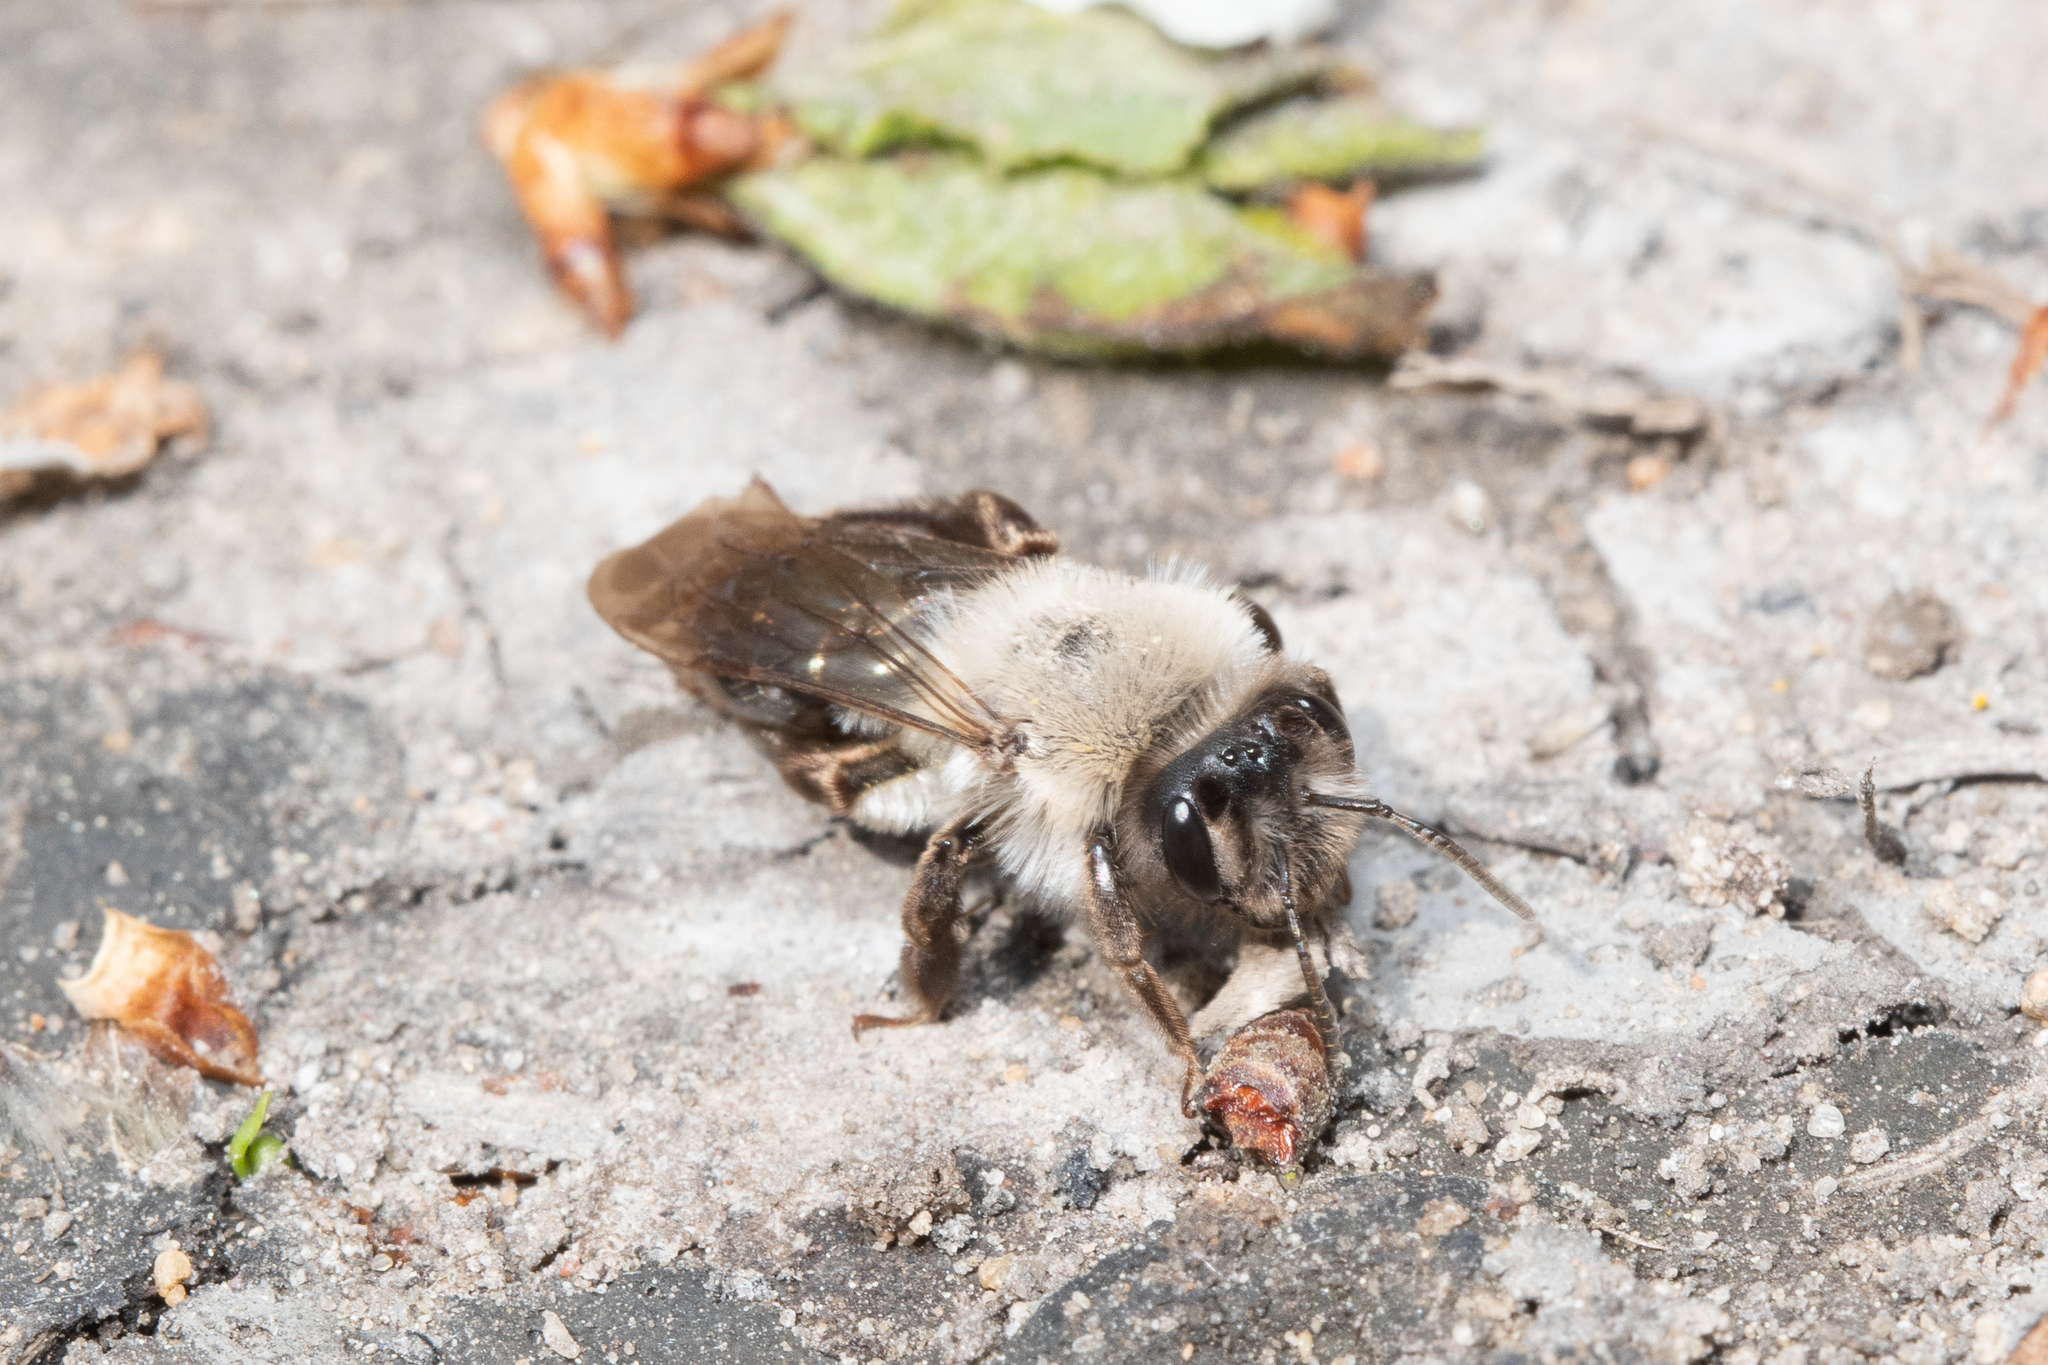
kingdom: Animalia
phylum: Arthropoda
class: Insecta
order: Hymenoptera
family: Andrenidae
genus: Andrena
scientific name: Andrena vaga
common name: Grey-backed mining bee
